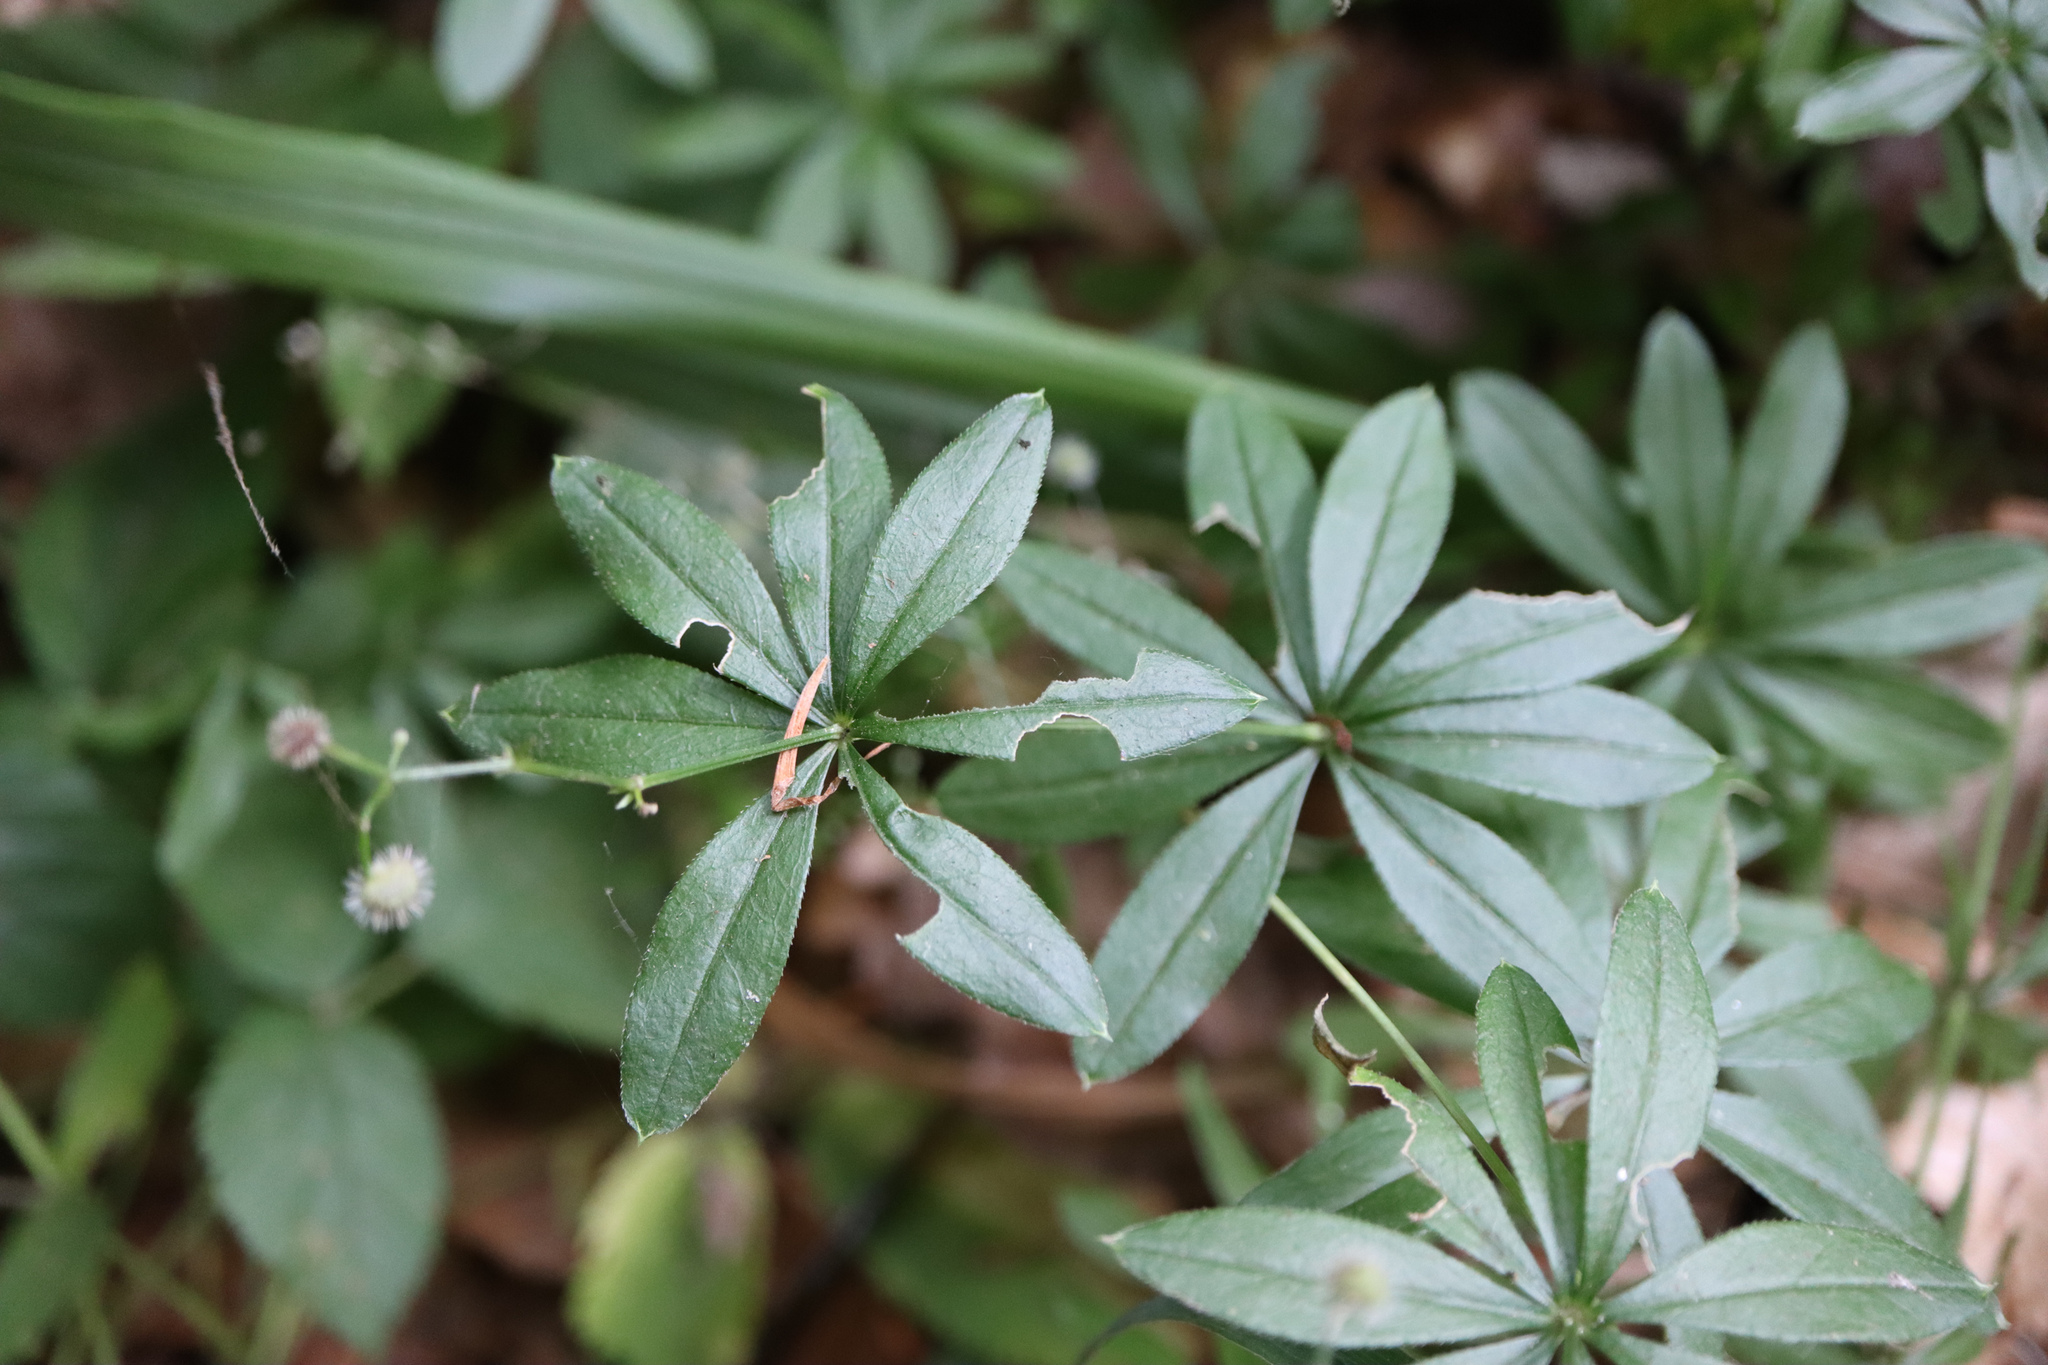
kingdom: Plantae
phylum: Tracheophyta
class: Magnoliopsida
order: Gentianales
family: Rubiaceae
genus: Galium
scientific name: Galium odoratum
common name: Sweet woodruff
